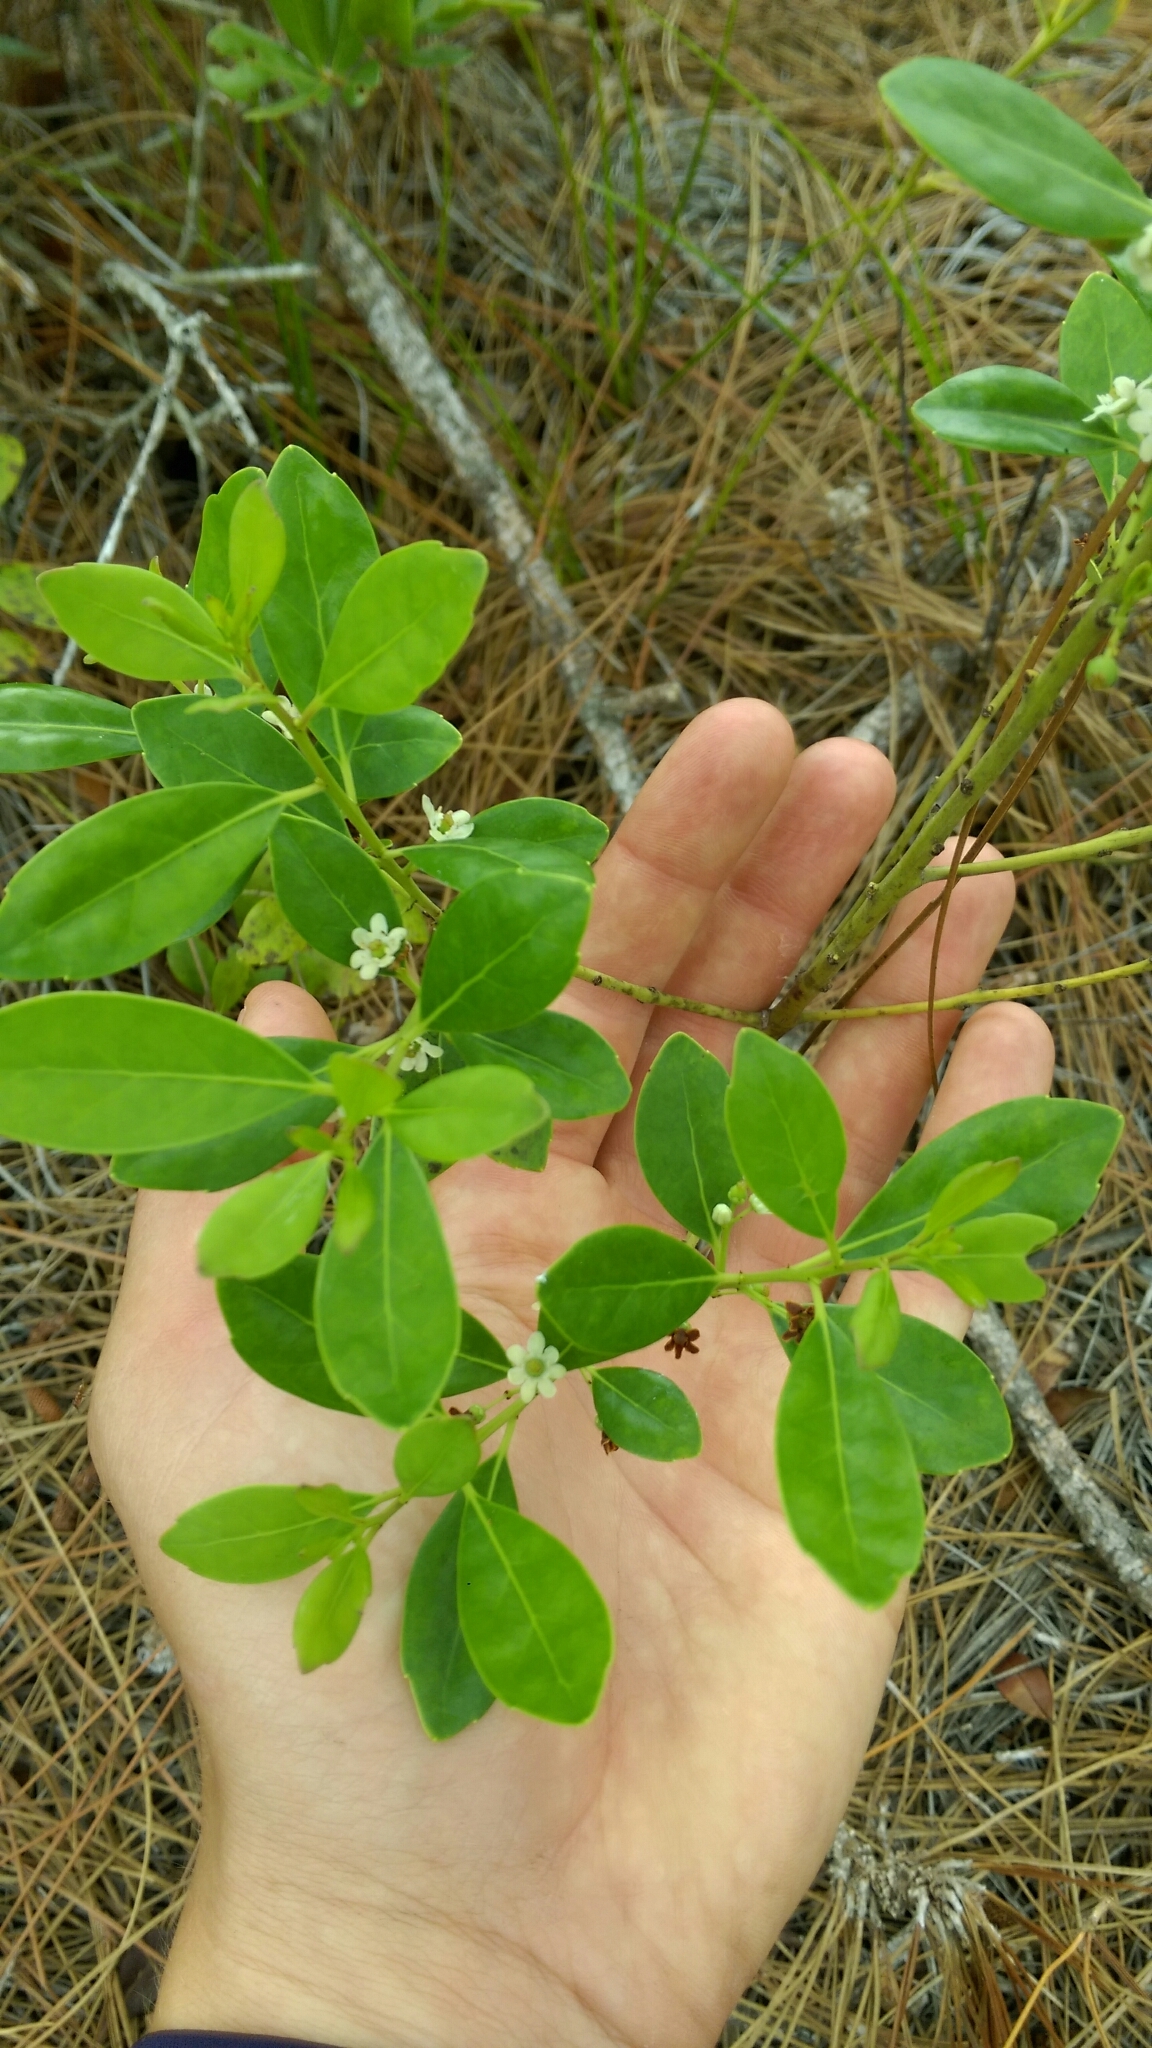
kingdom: Plantae
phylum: Tracheophyta
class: Magnoliopsida
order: Aquifoliales
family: Aquifoliaceae
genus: Ilex
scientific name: Ilex glabra
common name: Bitter gallberry
